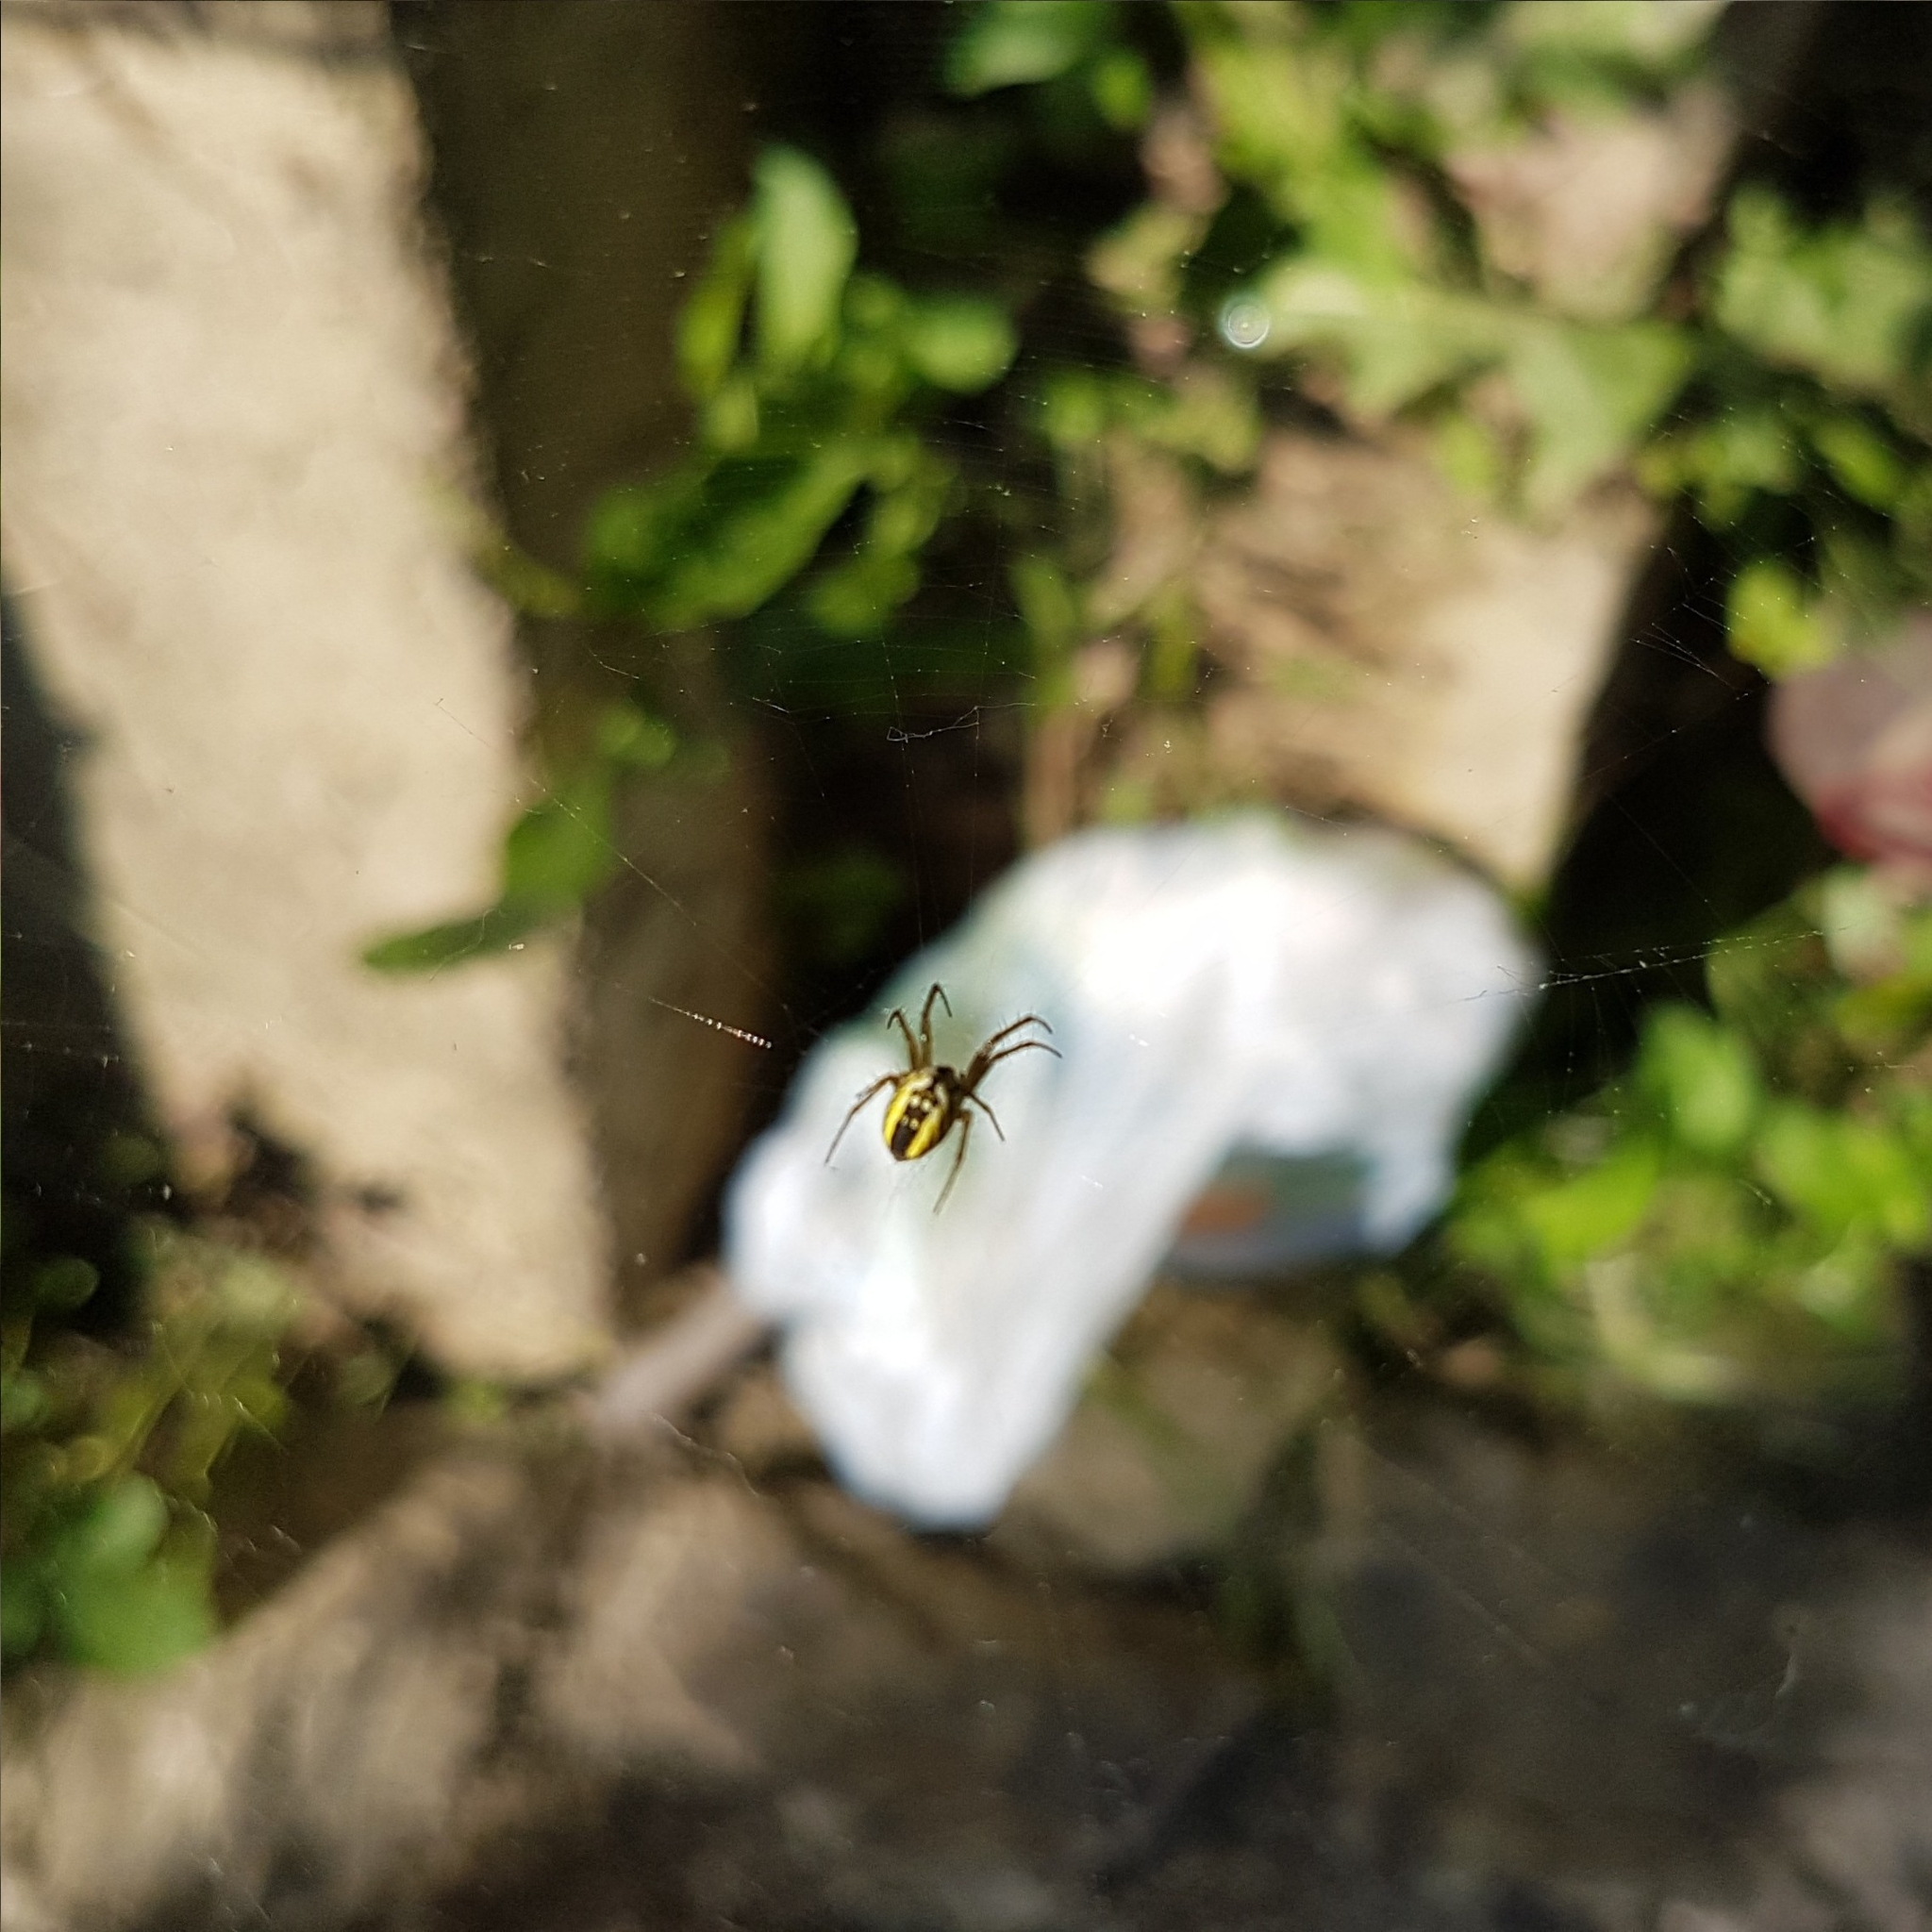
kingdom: Animalia
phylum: Arthropoda
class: Arachnida
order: Araneae
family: Araneidae
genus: Mangora
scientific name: Mangora acalypha
